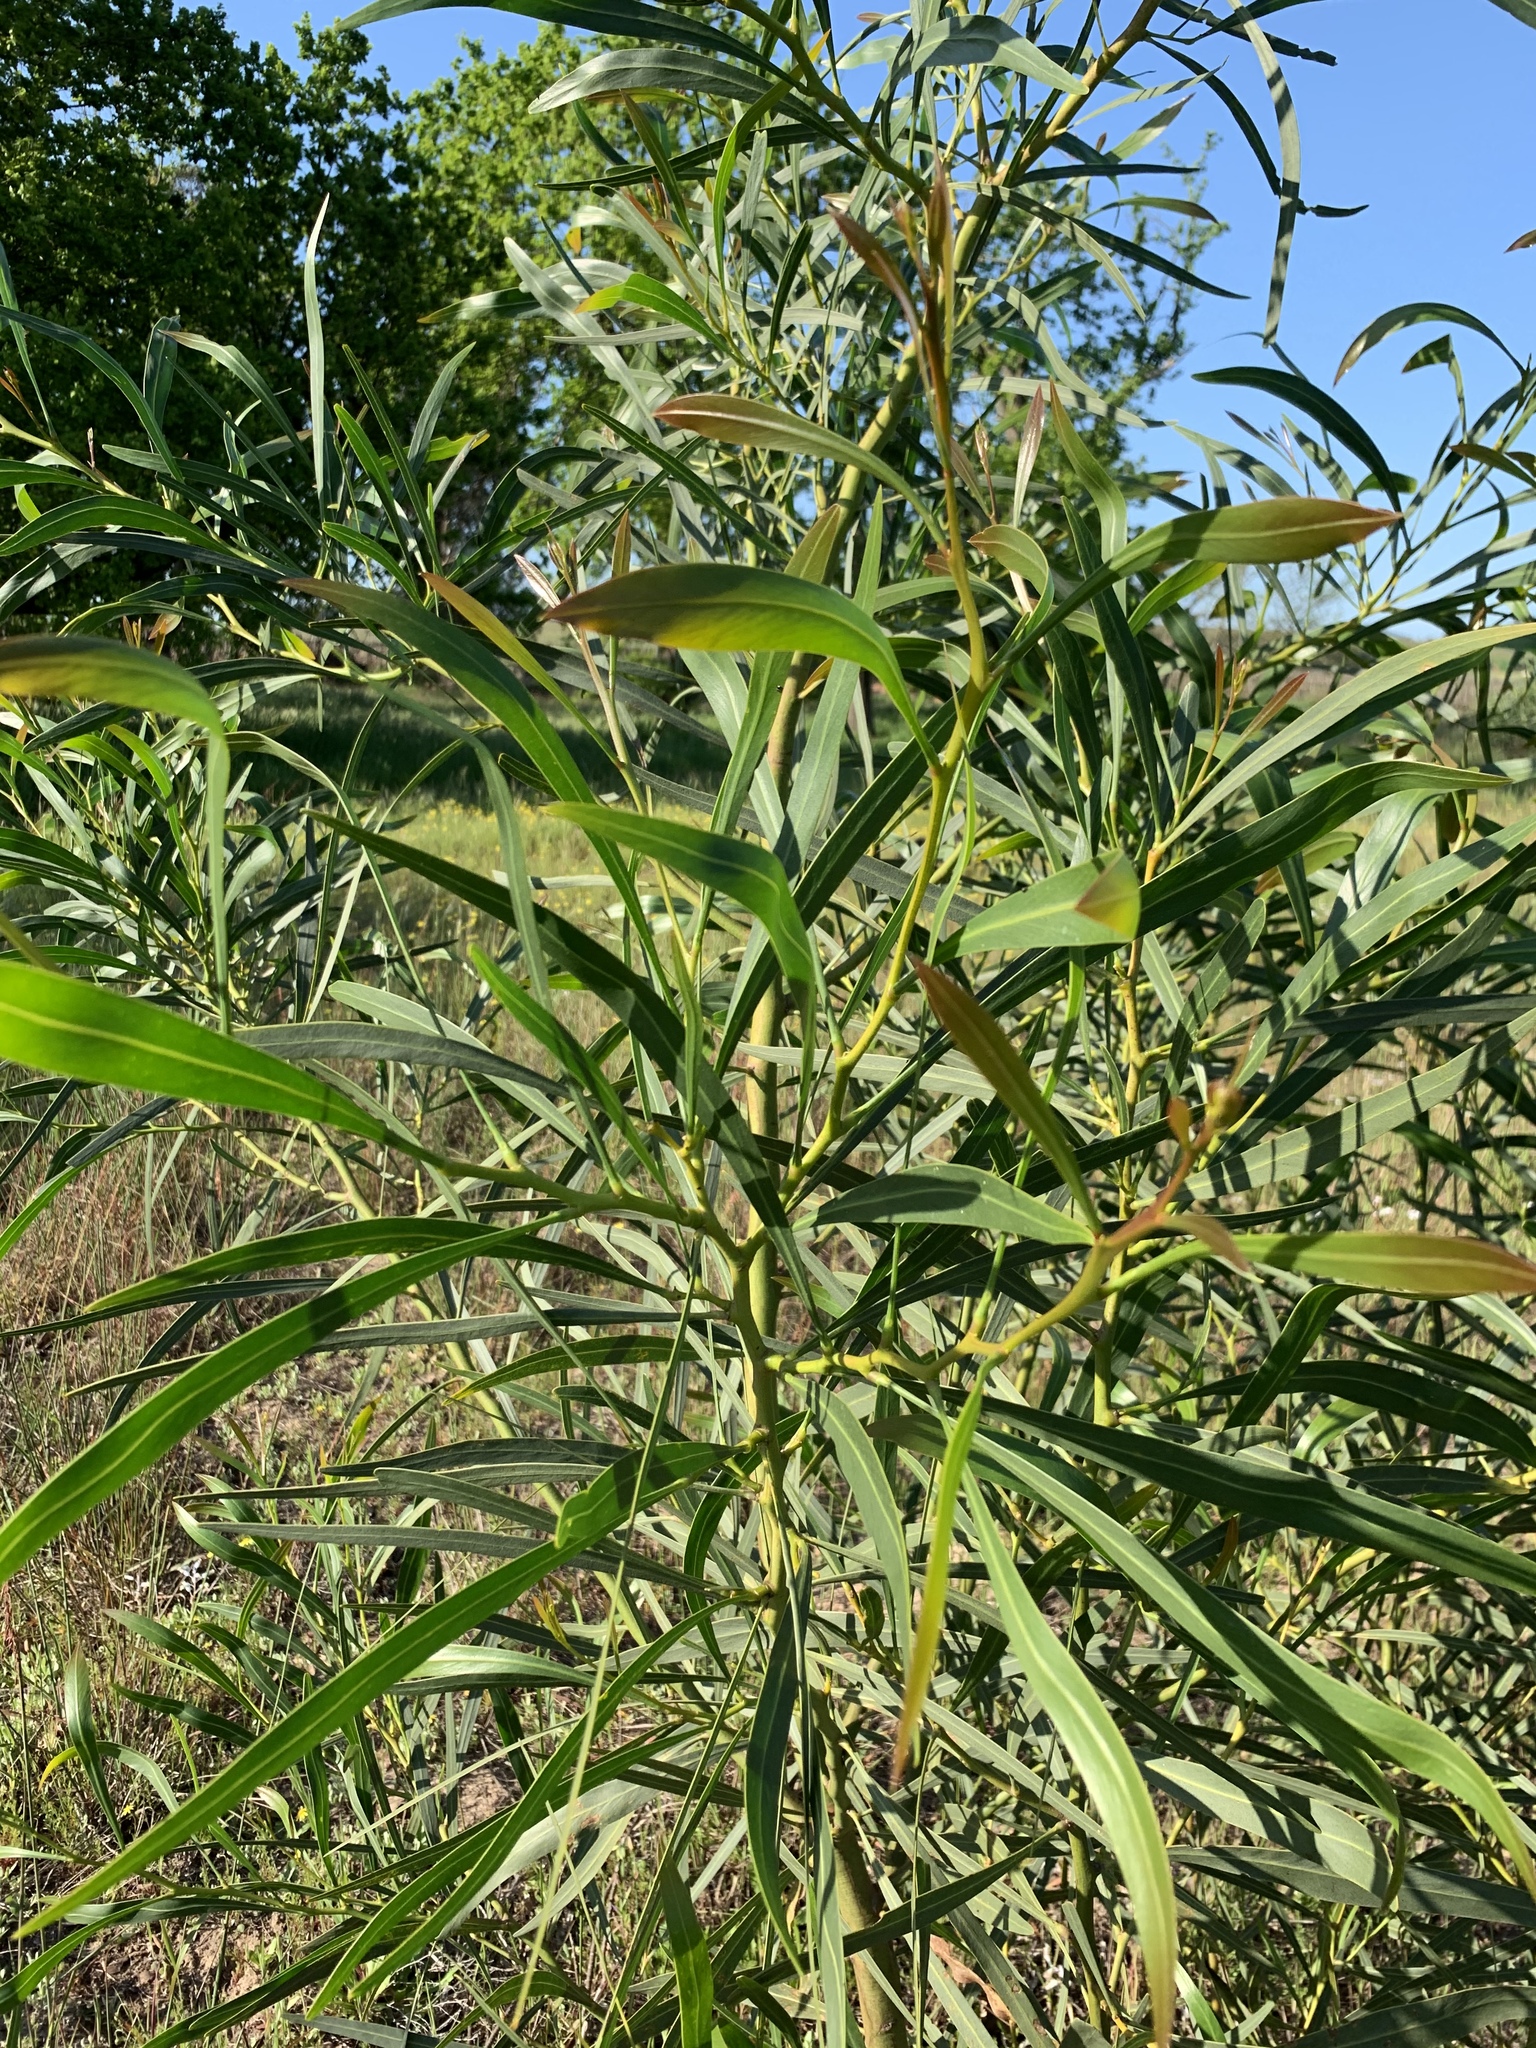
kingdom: Plantae
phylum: Tracheophyta
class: Magnoliopsida
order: Fabales
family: Fabaceae
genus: Acacia
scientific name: Acacia saligna
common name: Orange wattle
